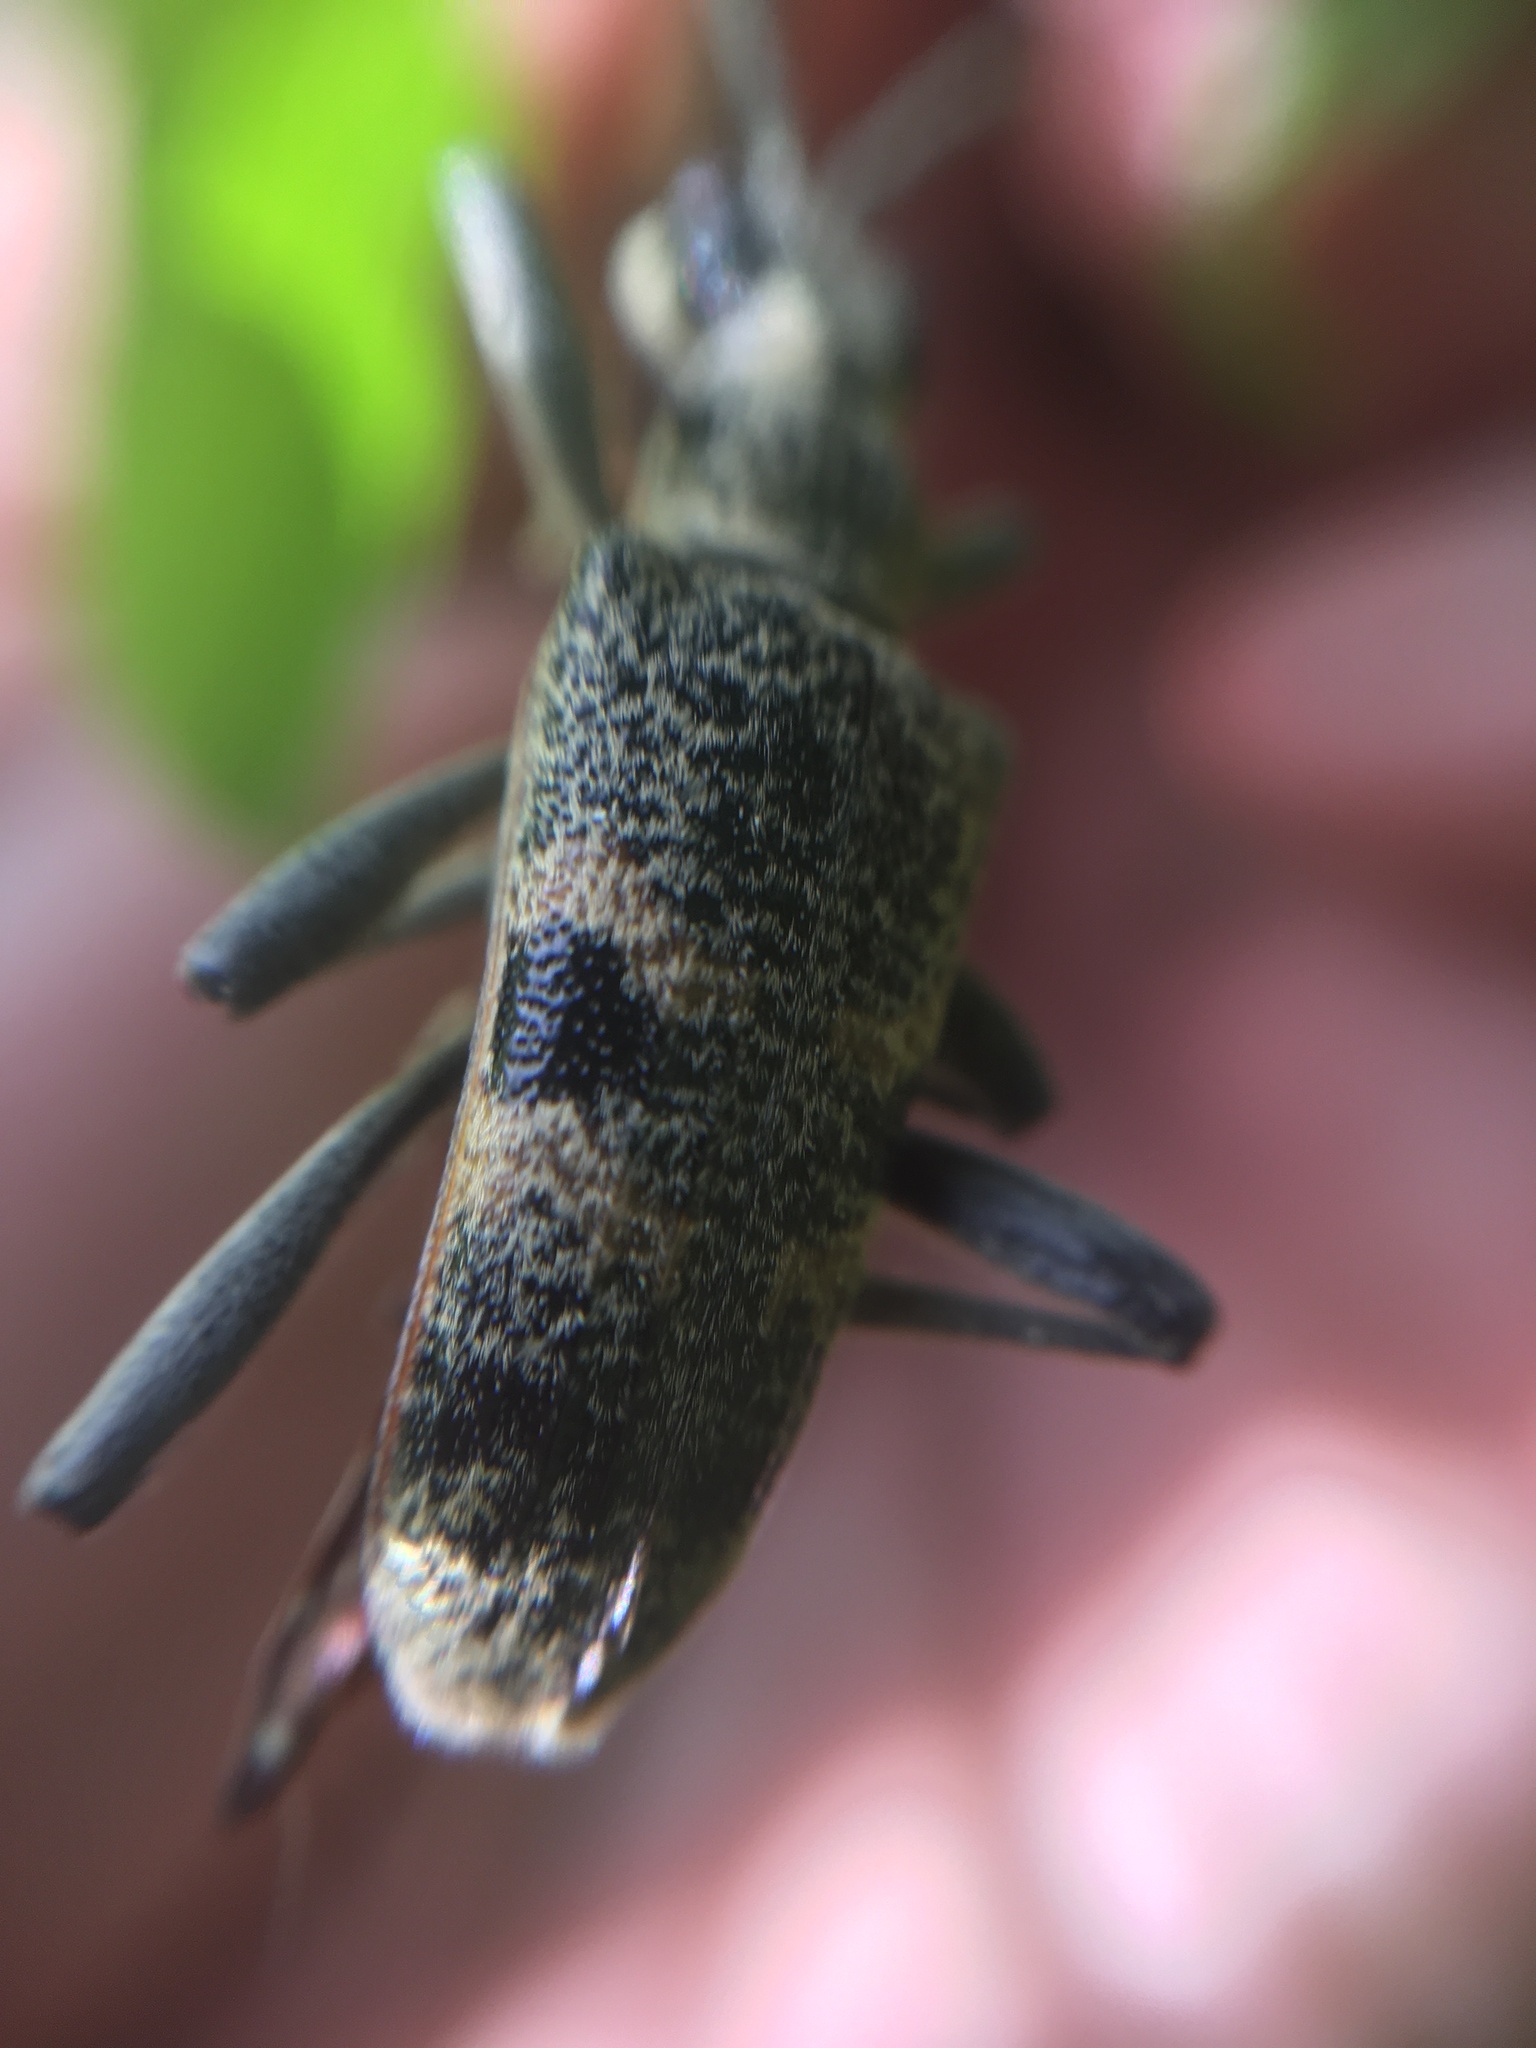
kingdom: Animalia
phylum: Arthropoda
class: Insecta
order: Coleoptera
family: Cerambycidae
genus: Rhagium
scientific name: Rhagium mordax
